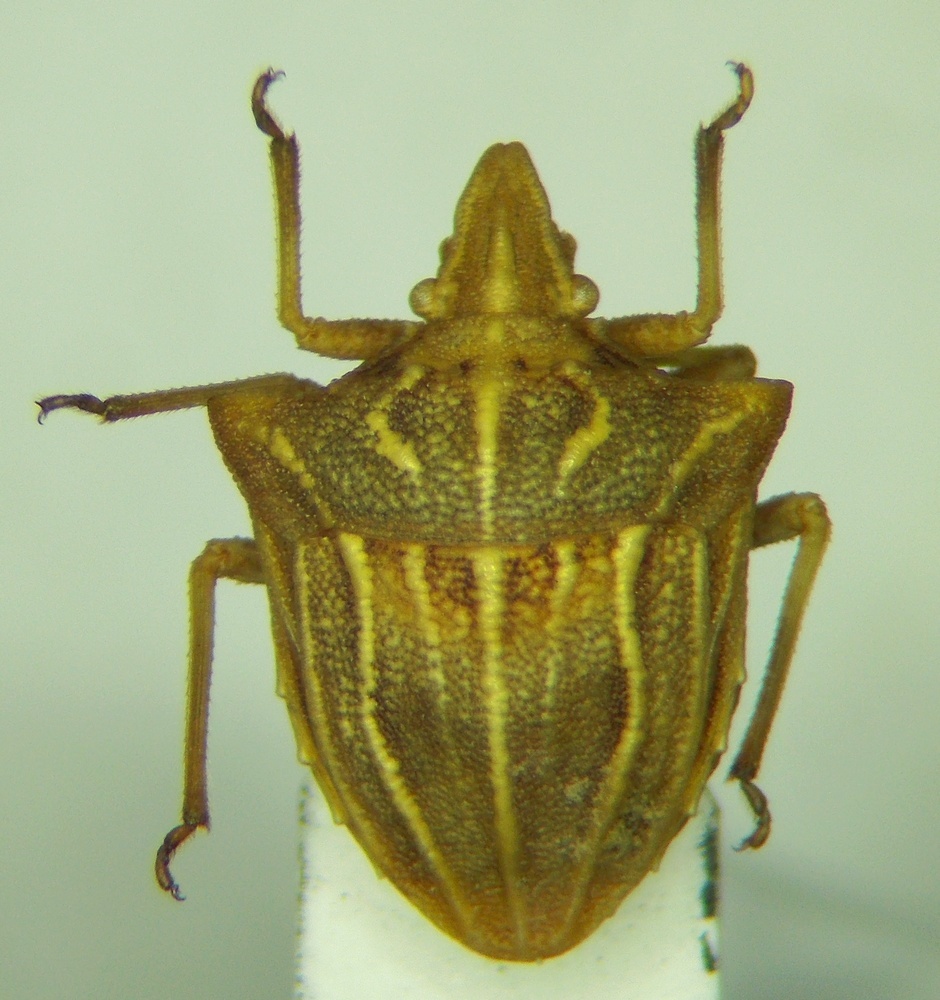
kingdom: Animalia
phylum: Arthropoda
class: Insecta
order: Hemiptera
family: Pentatomidae
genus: Ancyrosoma
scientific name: Ancyrosoma leucogrammes
